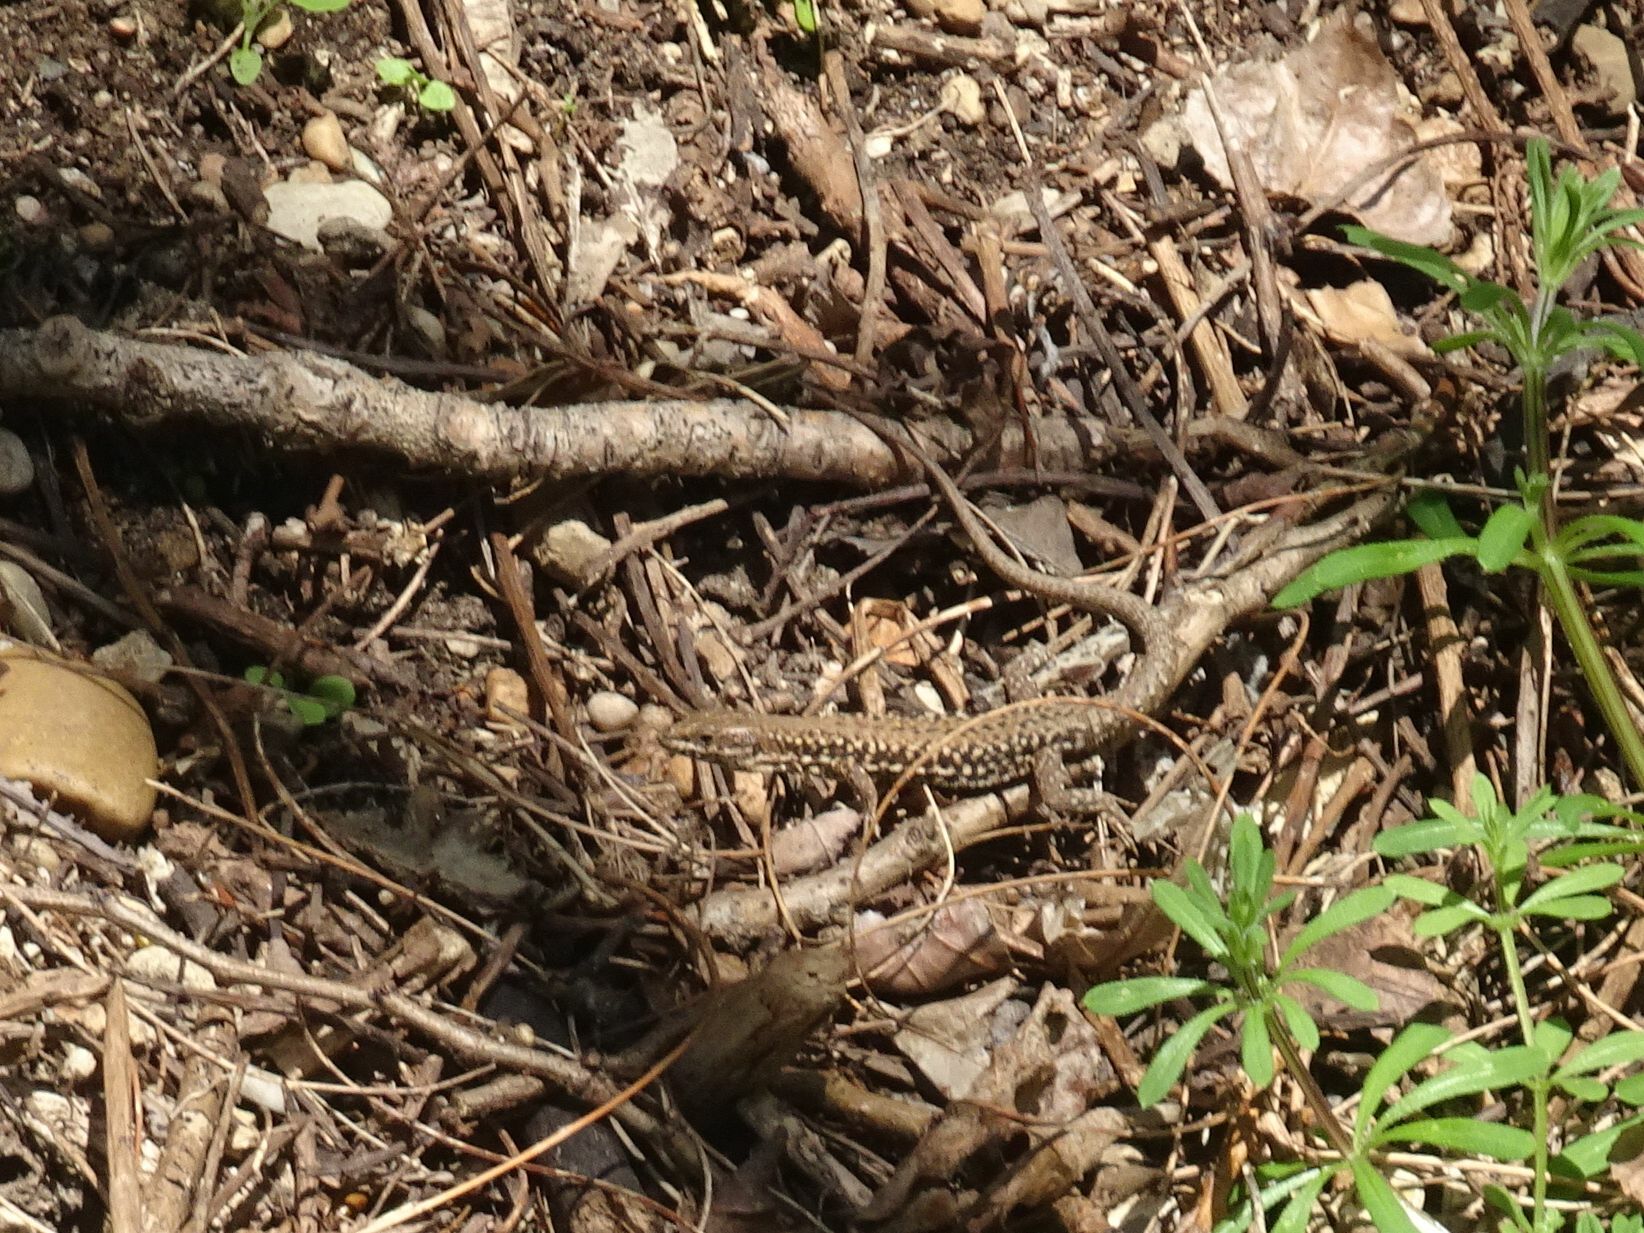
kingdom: Animalia
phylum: Chordata
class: Squamata
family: Lacertidae
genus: Podarcis
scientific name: Podarcis muralis
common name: Common wall lizard
